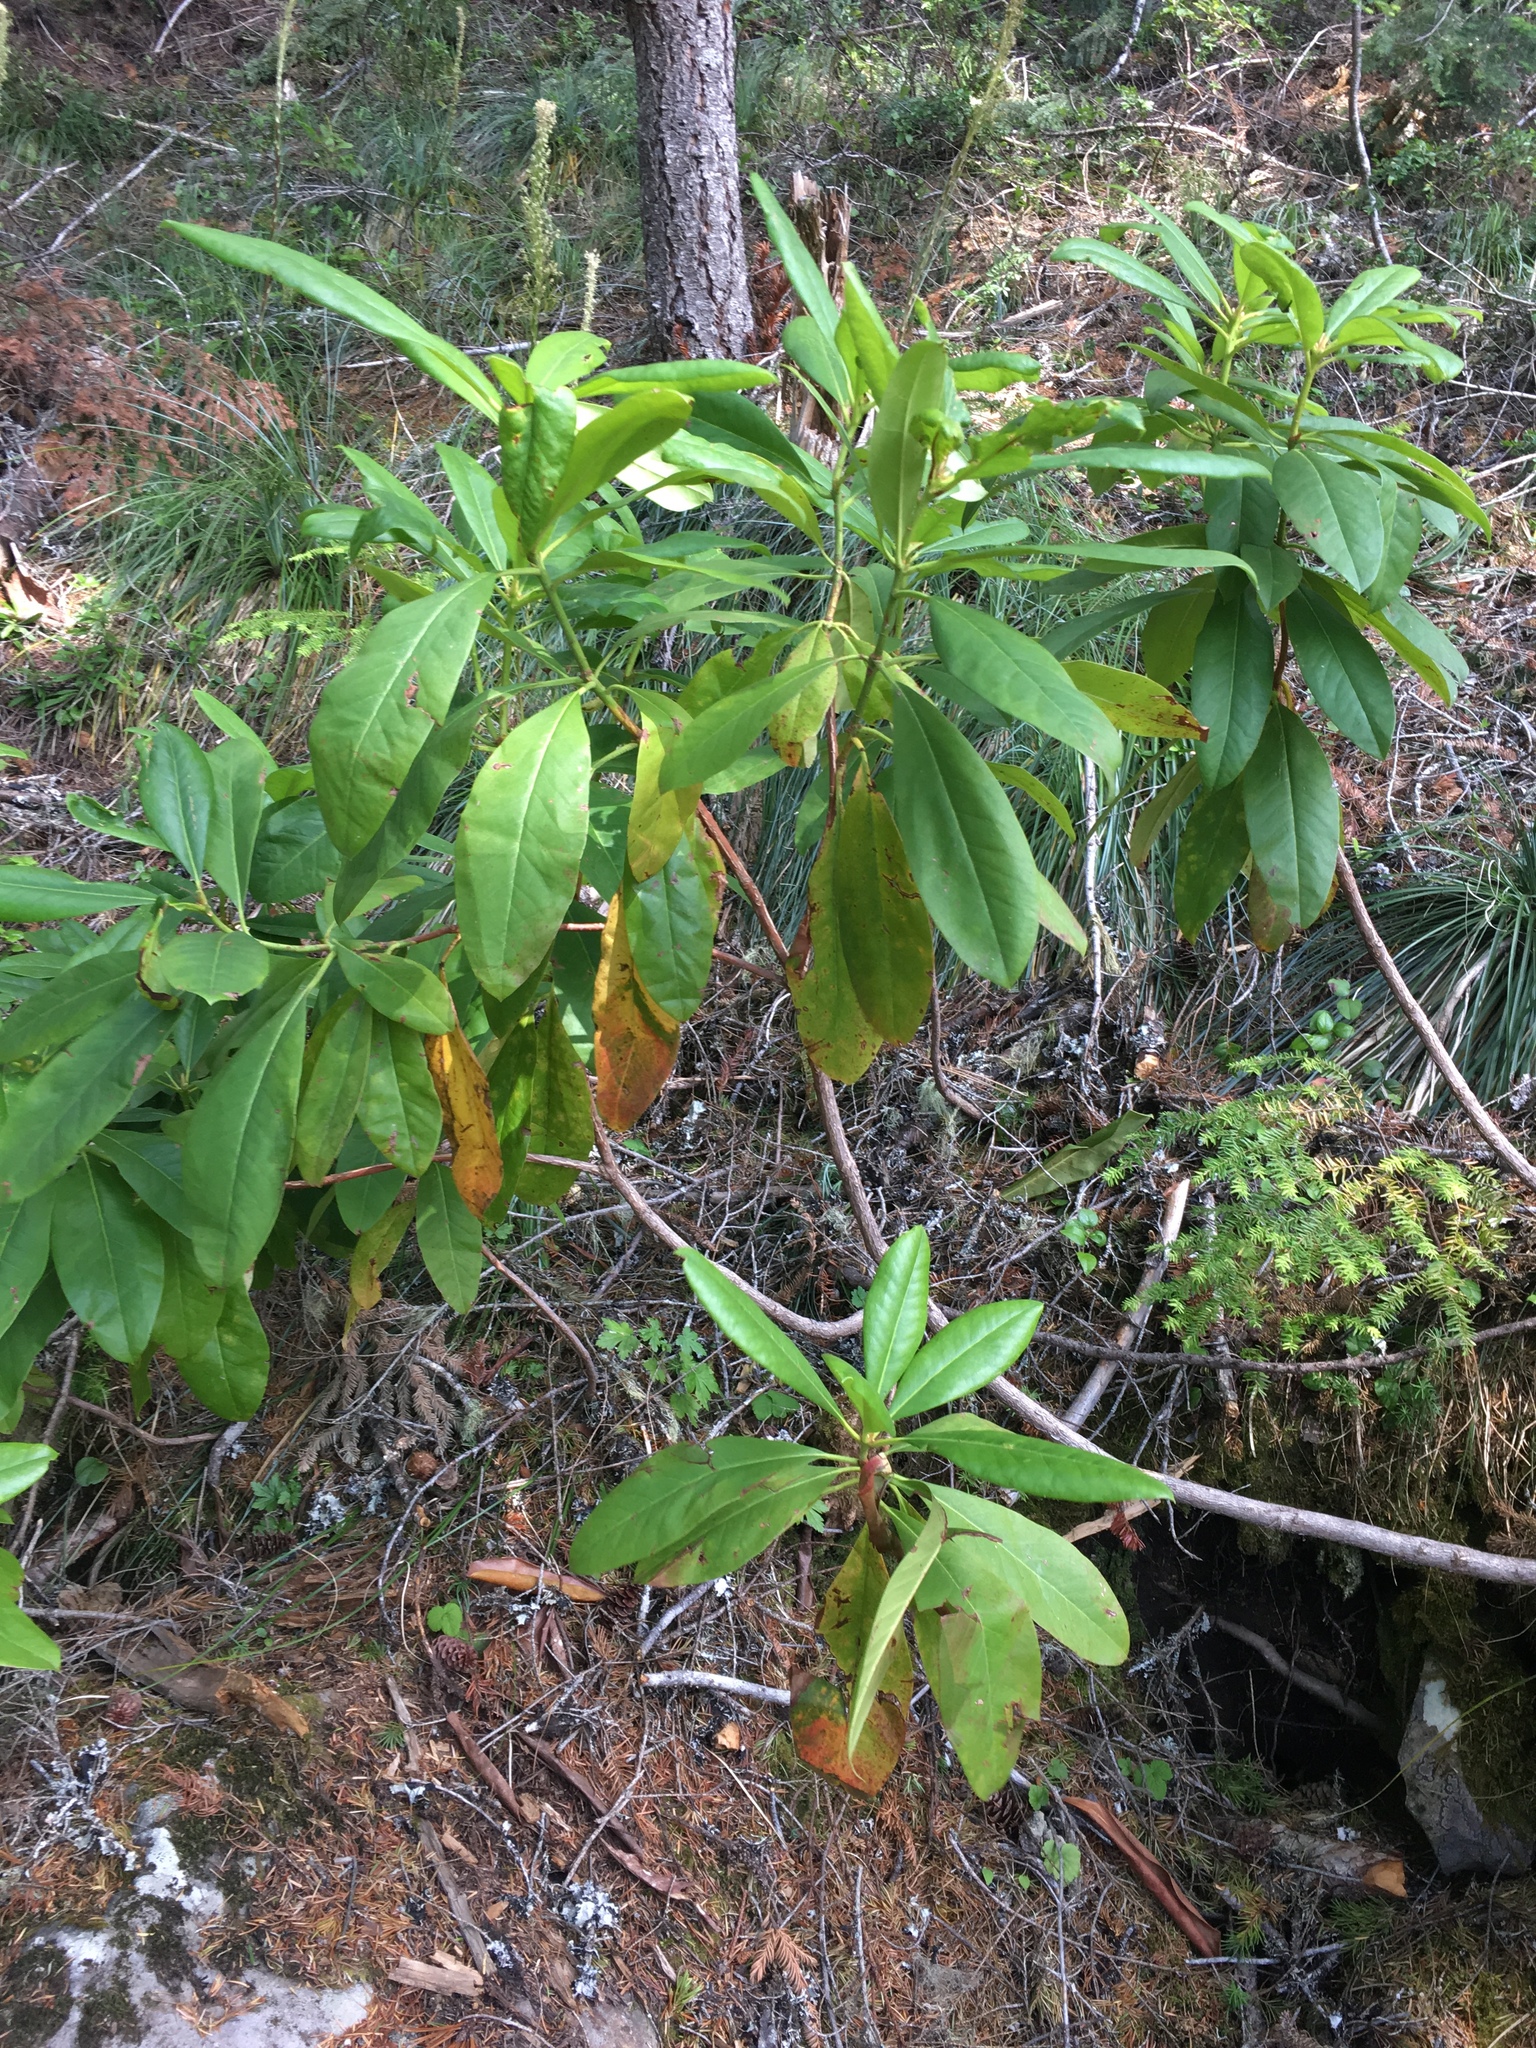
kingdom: Plantae
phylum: Tracheophyta
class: Magnoliopsida
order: Ericales
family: Ericaceae
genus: Rhododendron
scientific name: Rhododendron macrophyllum
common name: California rose bay
